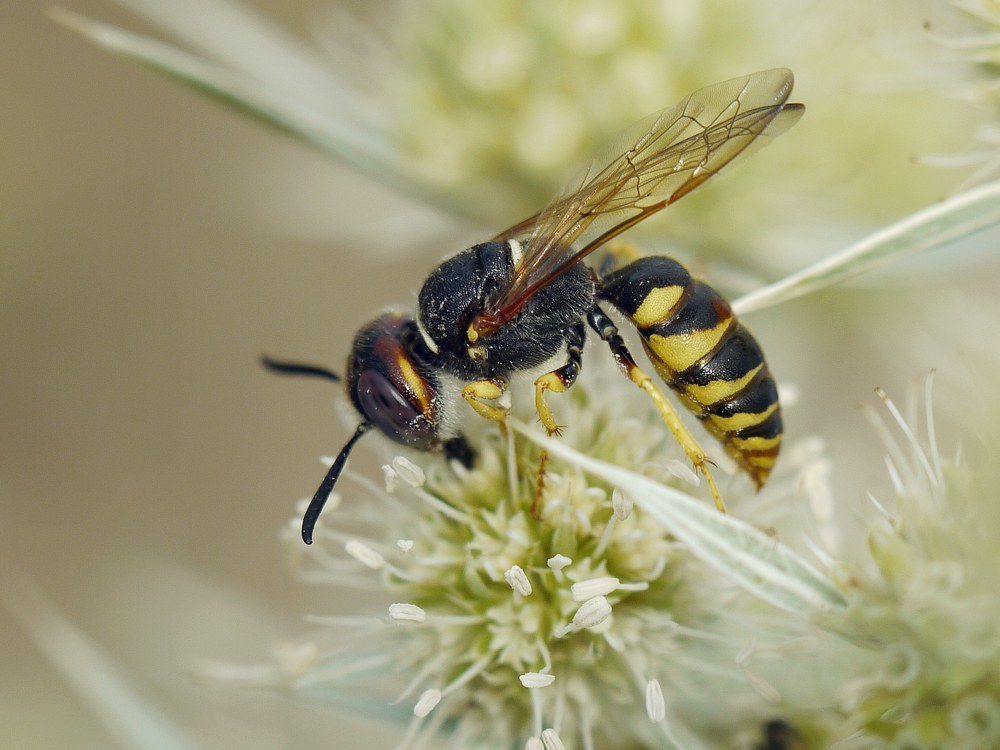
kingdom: Animalia
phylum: Arthropoda
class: Insecta
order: Hymenoptera
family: Crabronidae
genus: Philanthus
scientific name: Philanthus triangulum
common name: Bee wolf
